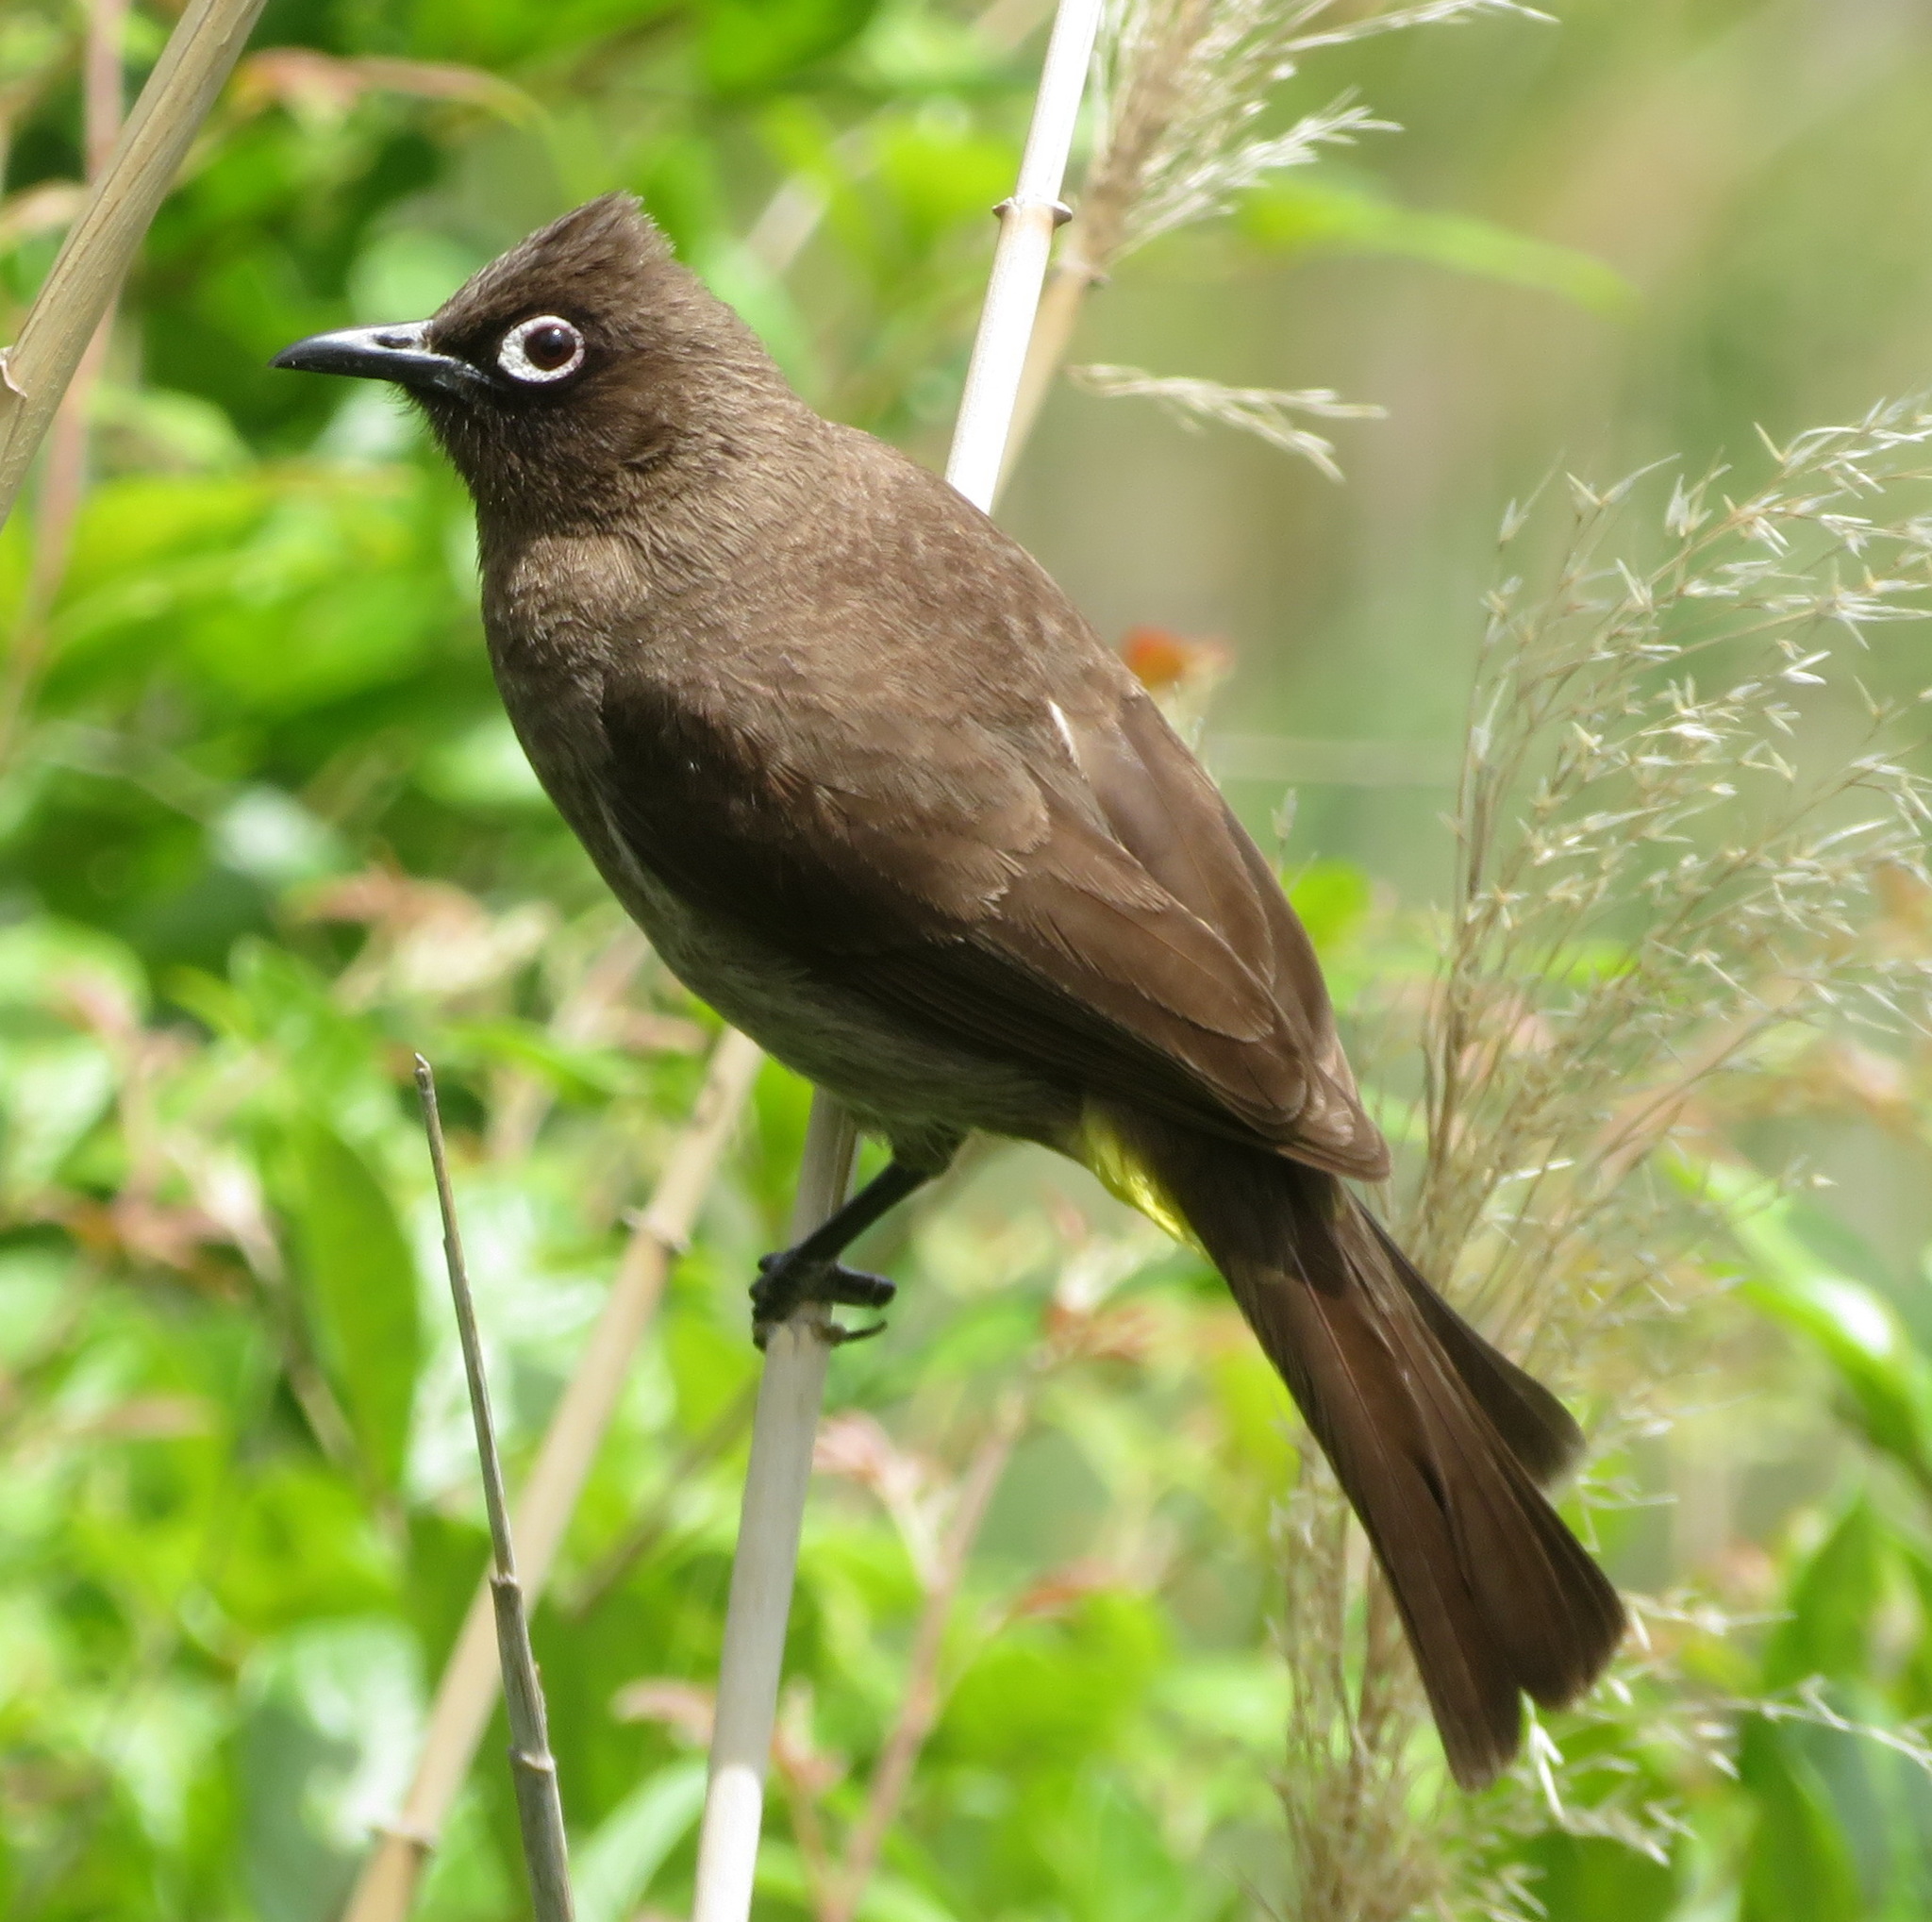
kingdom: Animalia
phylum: Chordata
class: Aves
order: Passeriformes
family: Pycnonotidae
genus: Pycnonotus
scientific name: Pycnonotus capensis
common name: Cape bulbul
